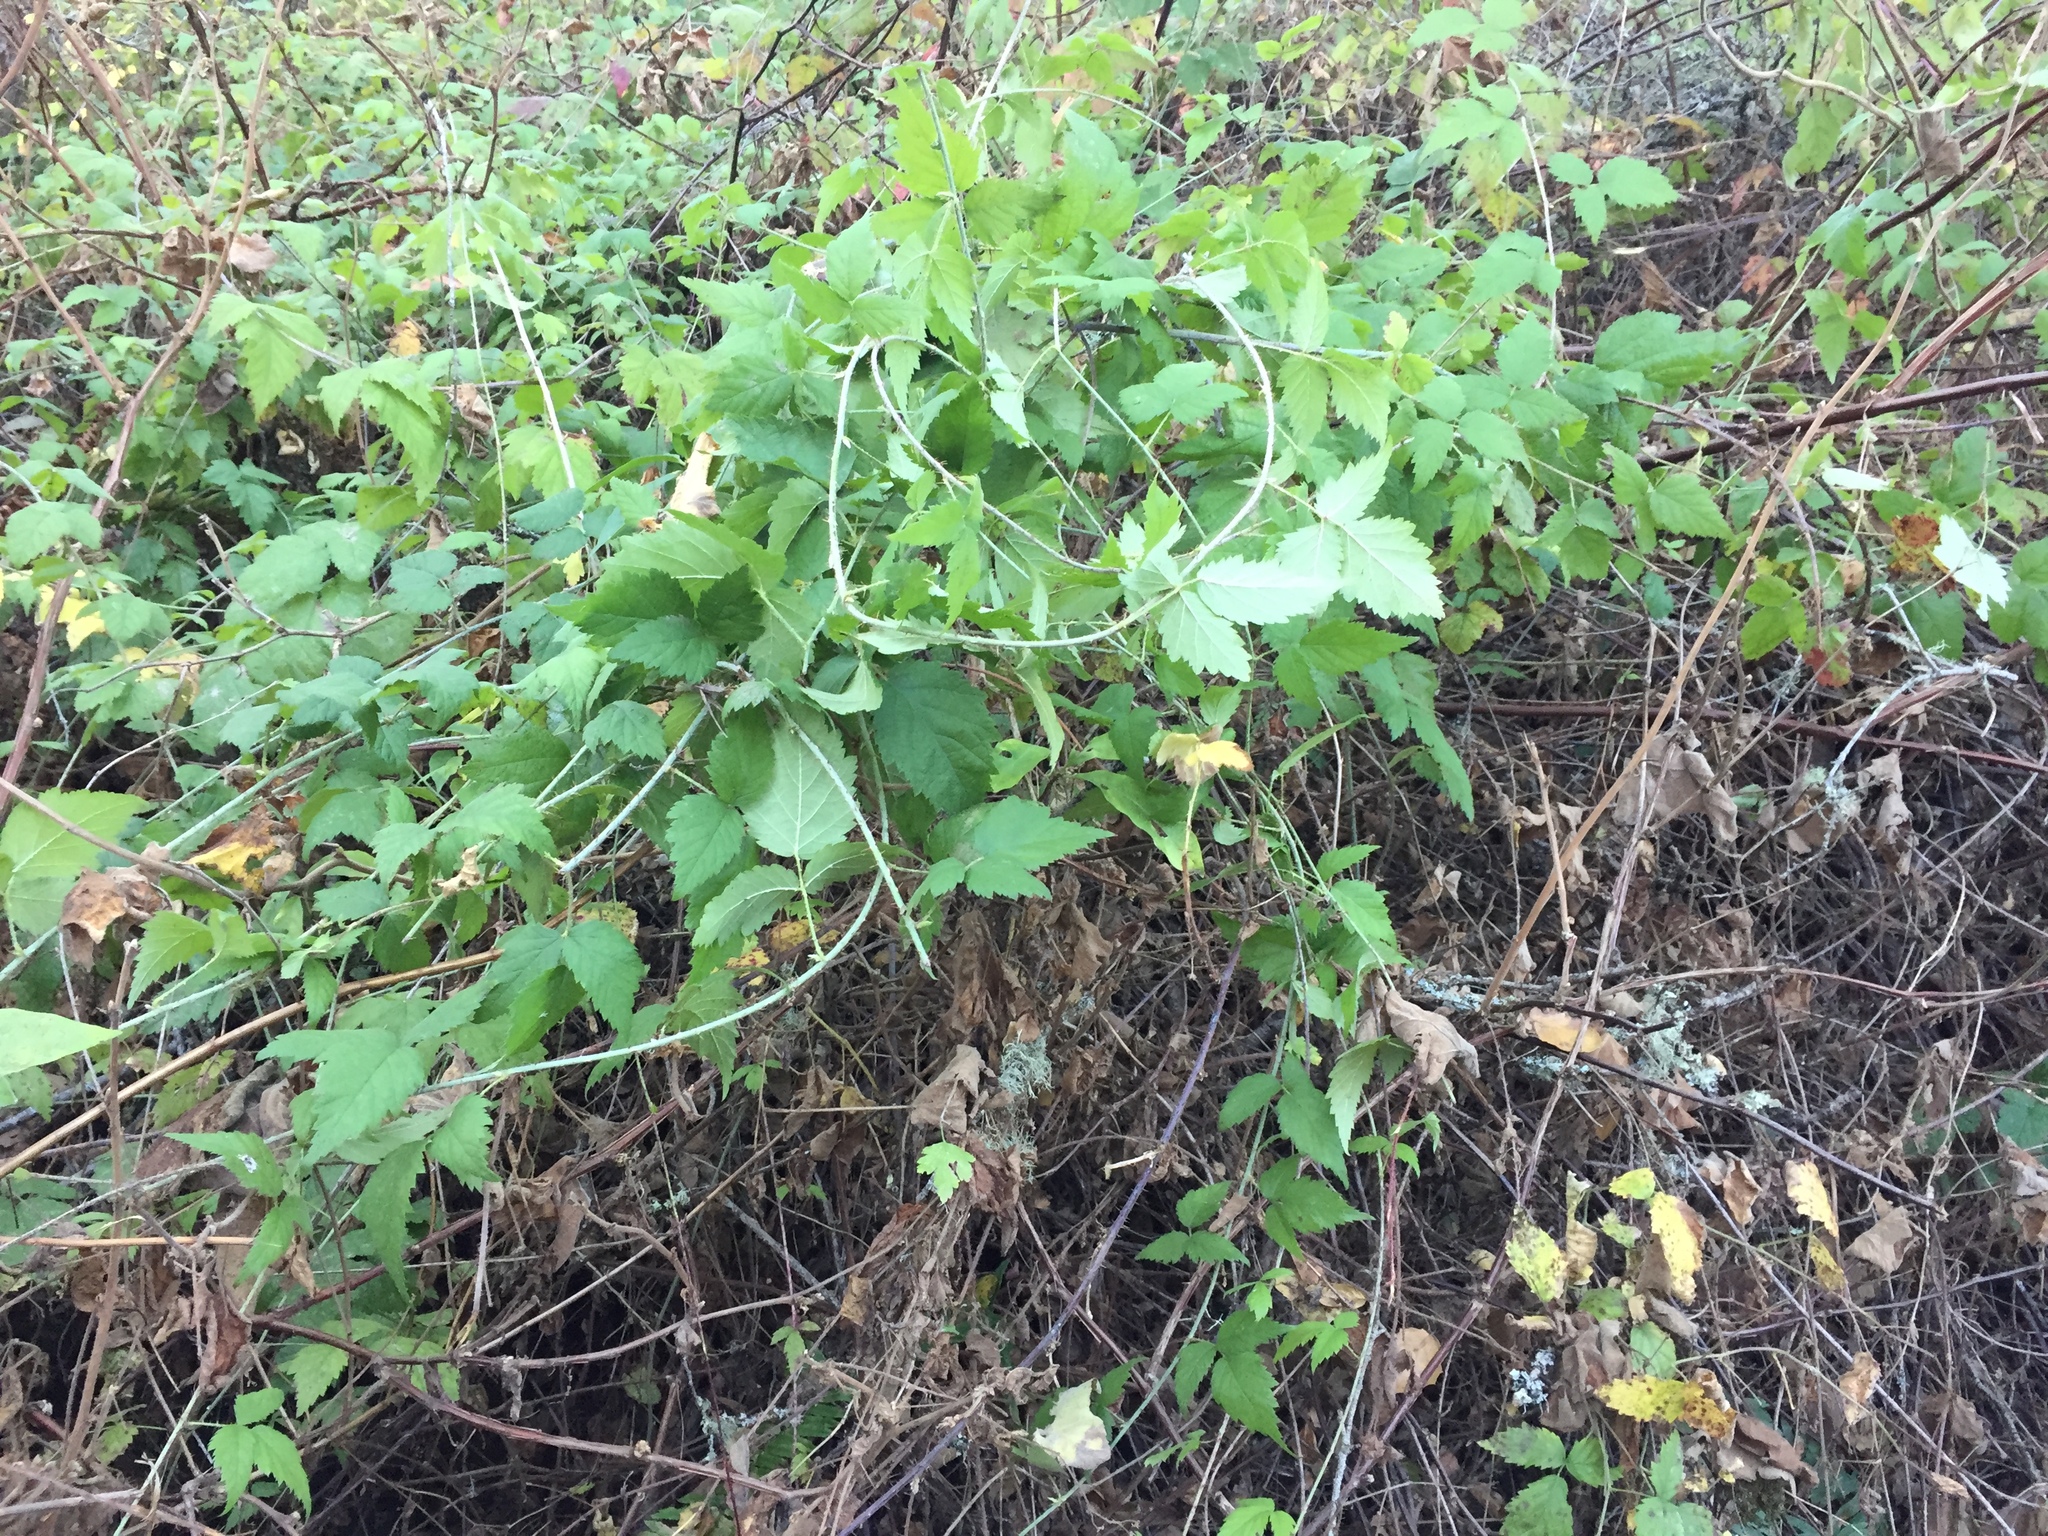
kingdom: Plantae
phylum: Tracheophyta
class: Magnoliopsida
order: Rosales
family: Rosaceae
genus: Rubus
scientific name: Rubus ursinus
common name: Pacific blackberry
